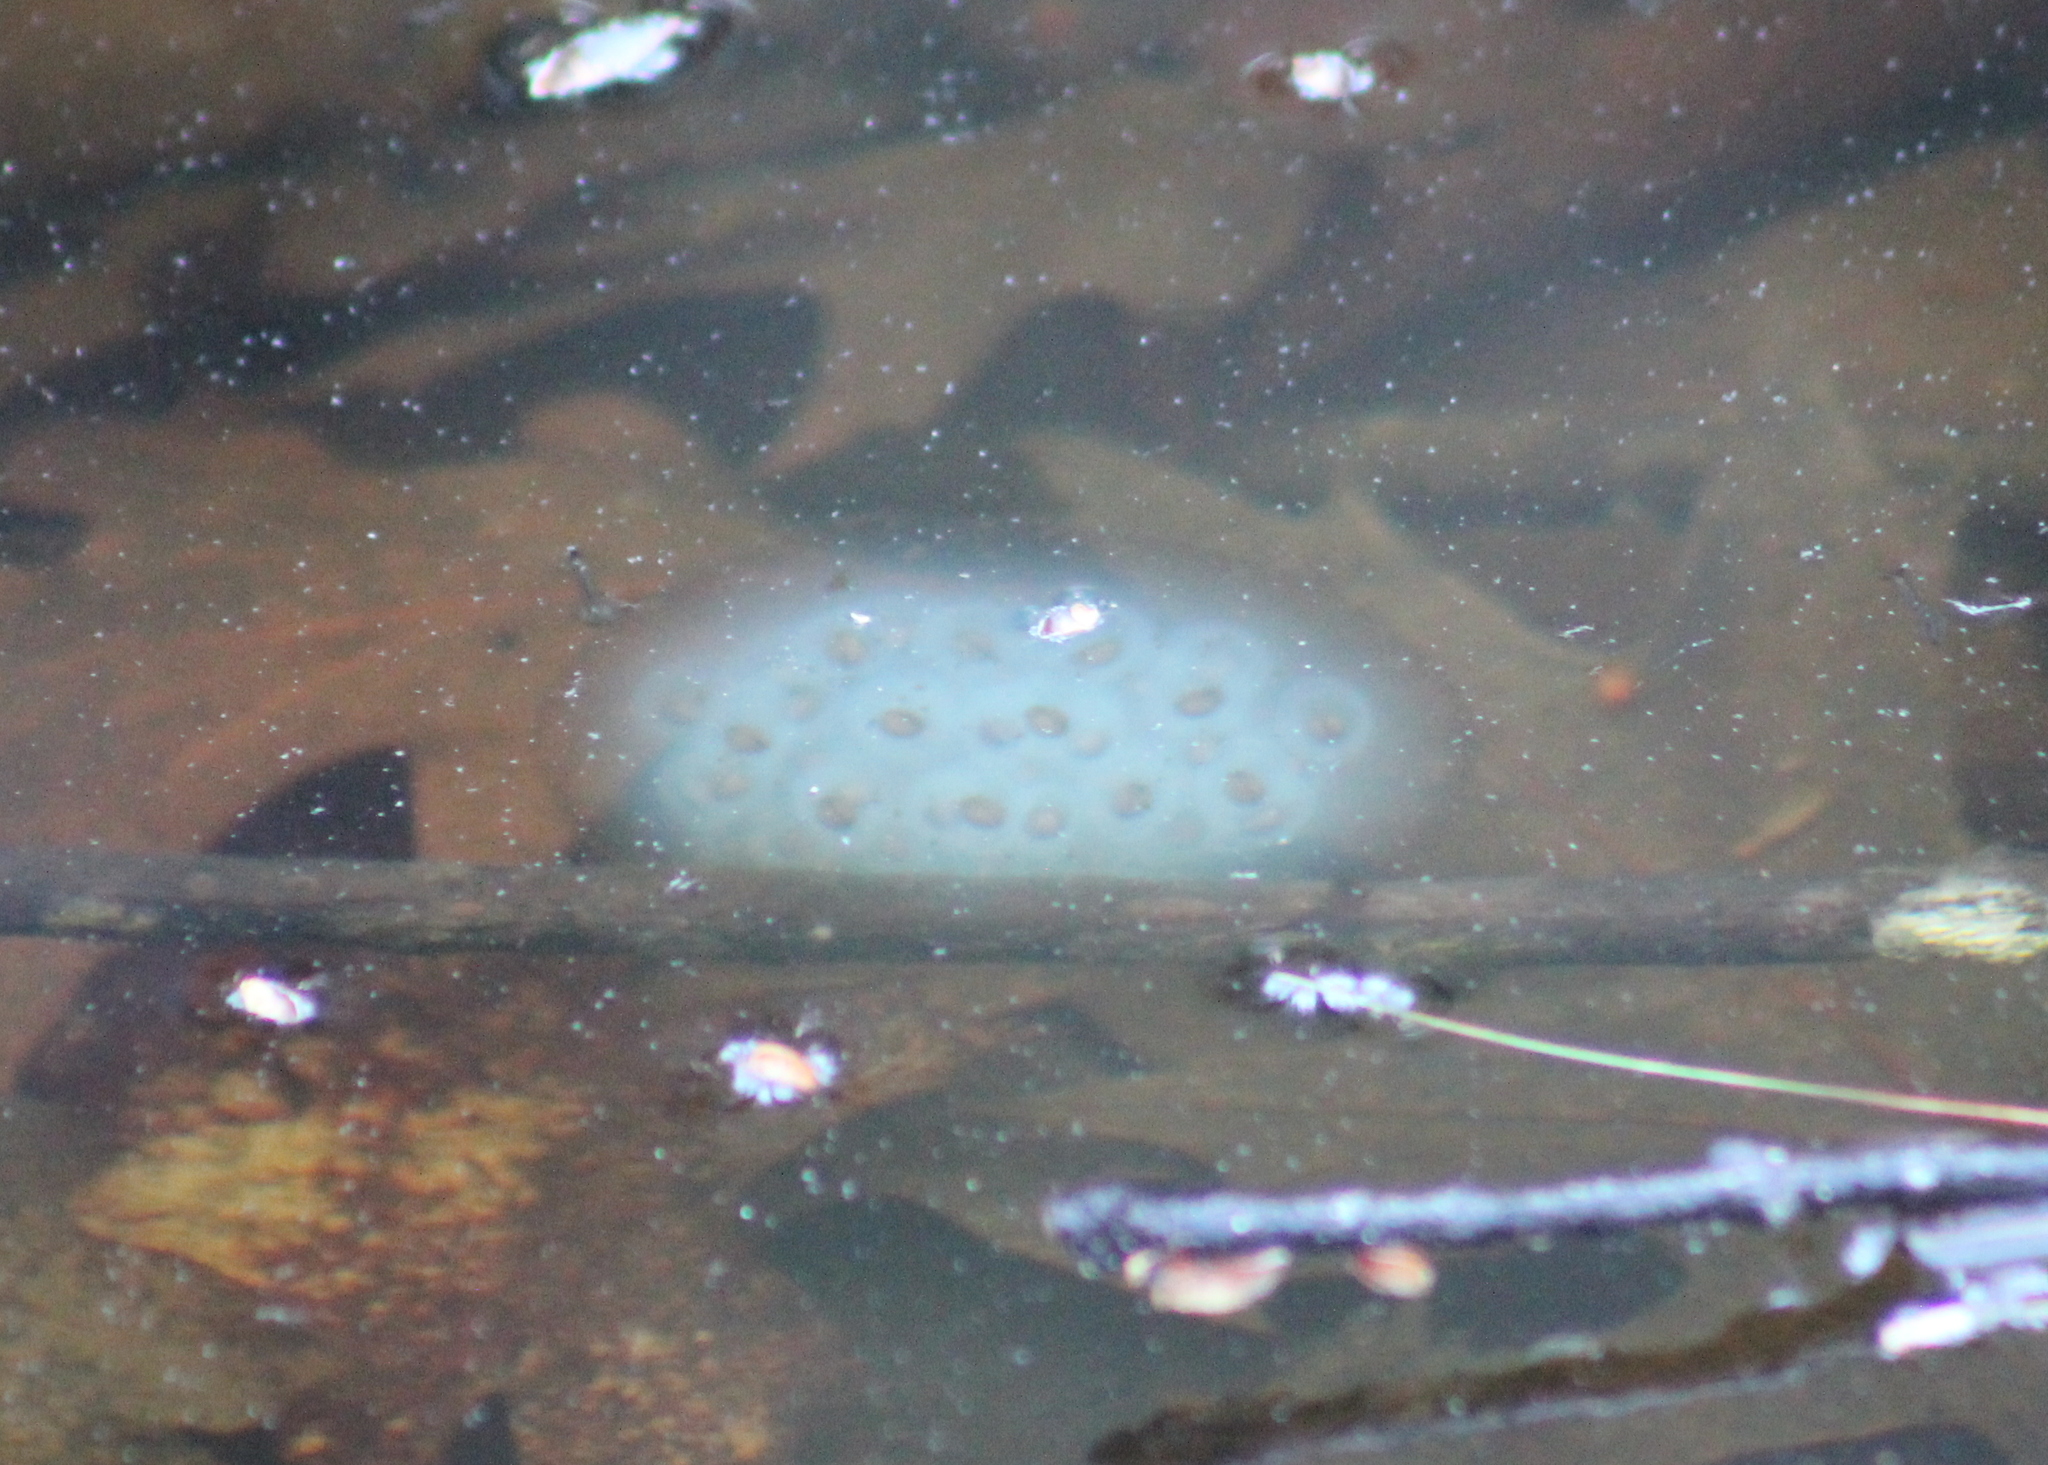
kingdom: Animalia
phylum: Chordata
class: Amphibia
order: Caudata
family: Ambystomatidae
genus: Ambystoma
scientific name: Ambystoma maculatum
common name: Spotted salamander
